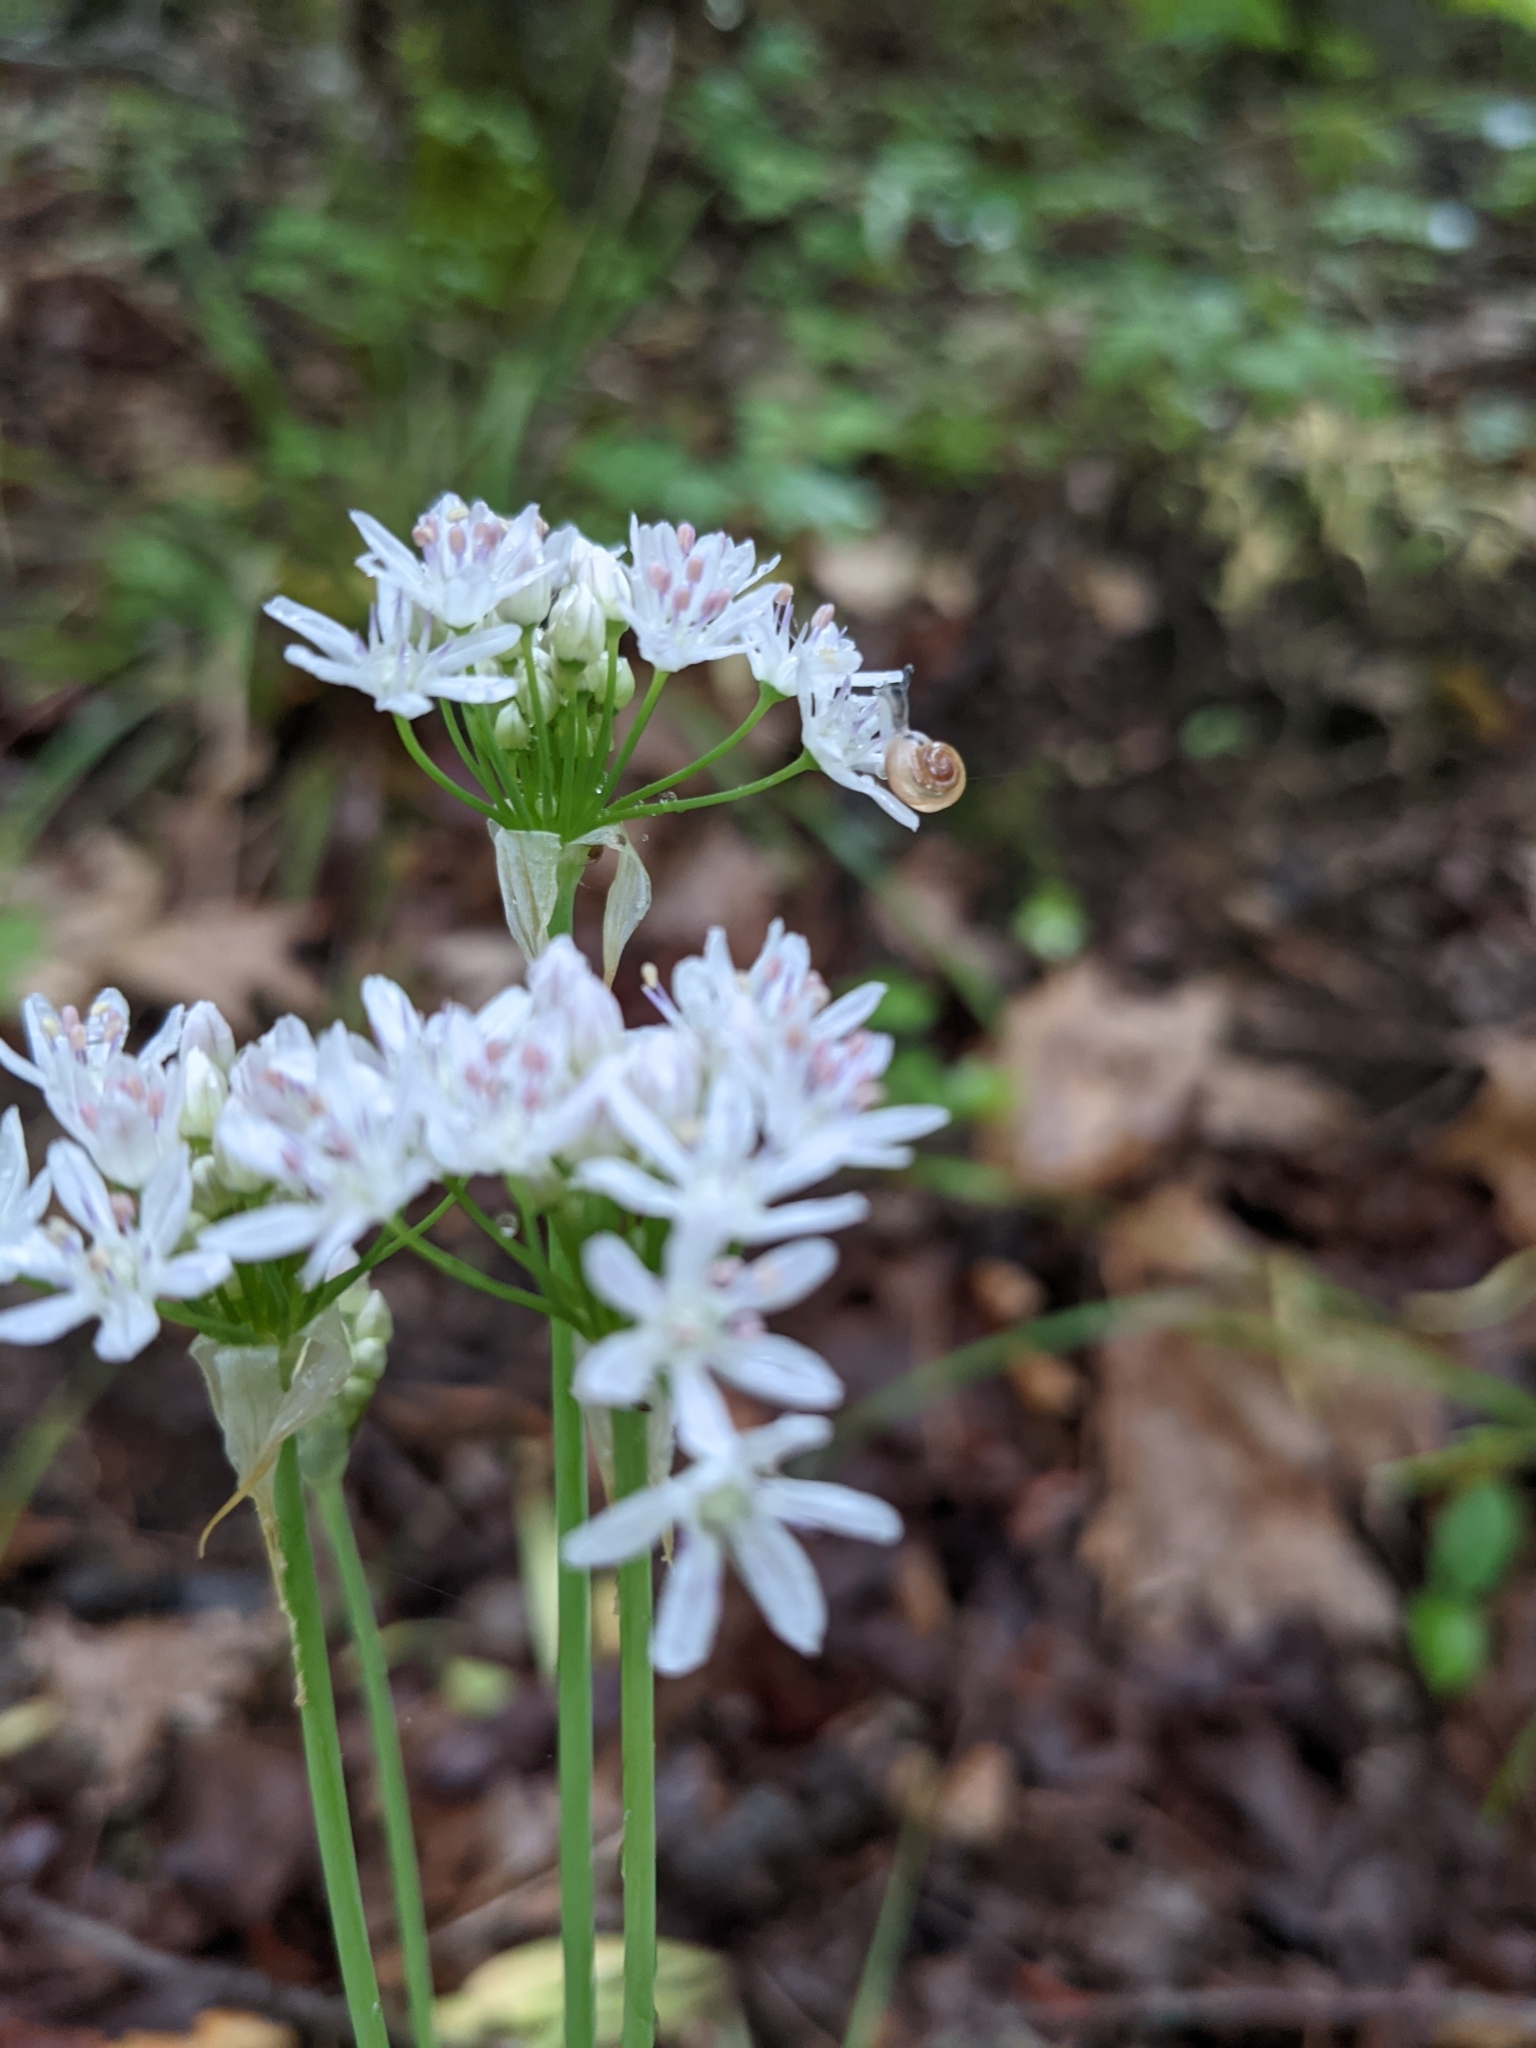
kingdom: Plantae
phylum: Tracheophyta
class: Liliopsida
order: Asparagales
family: Amaryllidaceae
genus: Allium
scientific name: Allium canadense
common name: Meadow garlic
